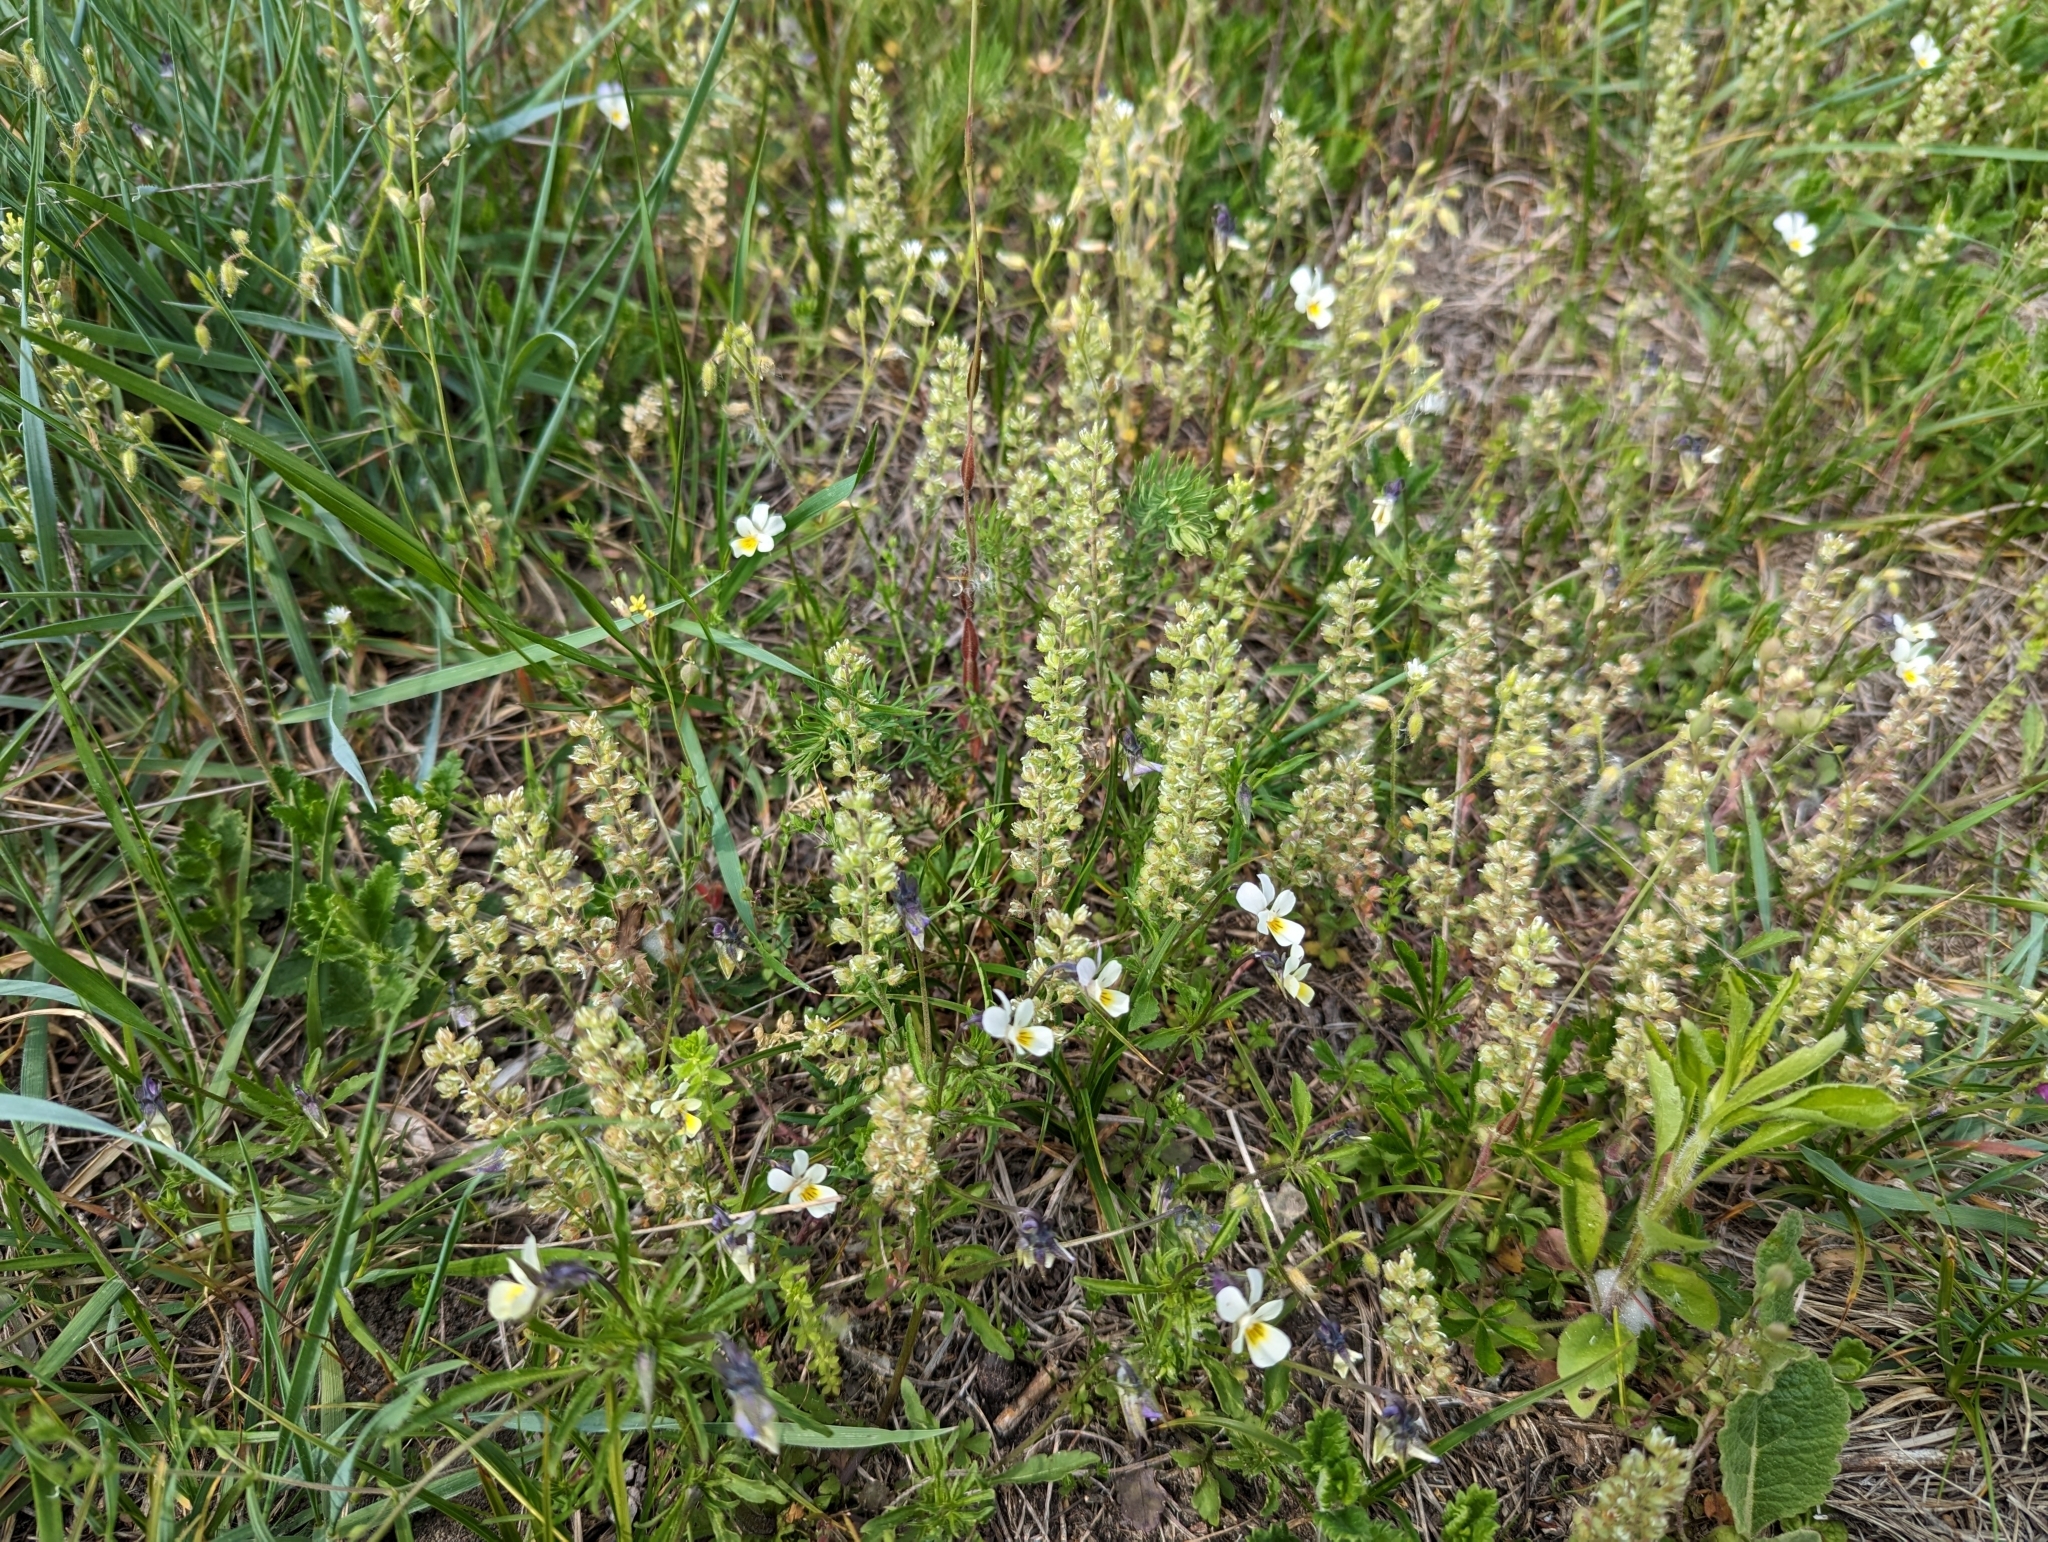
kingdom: Plantae
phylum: Tracheophyta
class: Magnoliopsida
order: Brassicales
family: Brassicaceae
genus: Alyssum
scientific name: Alyssum alyssoides
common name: Small alison
